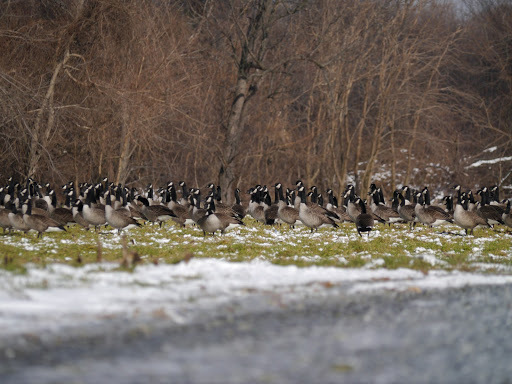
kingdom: Animalia
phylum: Chordata
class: Aves
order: Anseriformes
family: Anatidae
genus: Branta
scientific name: Branta canadensis
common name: Canada goose
